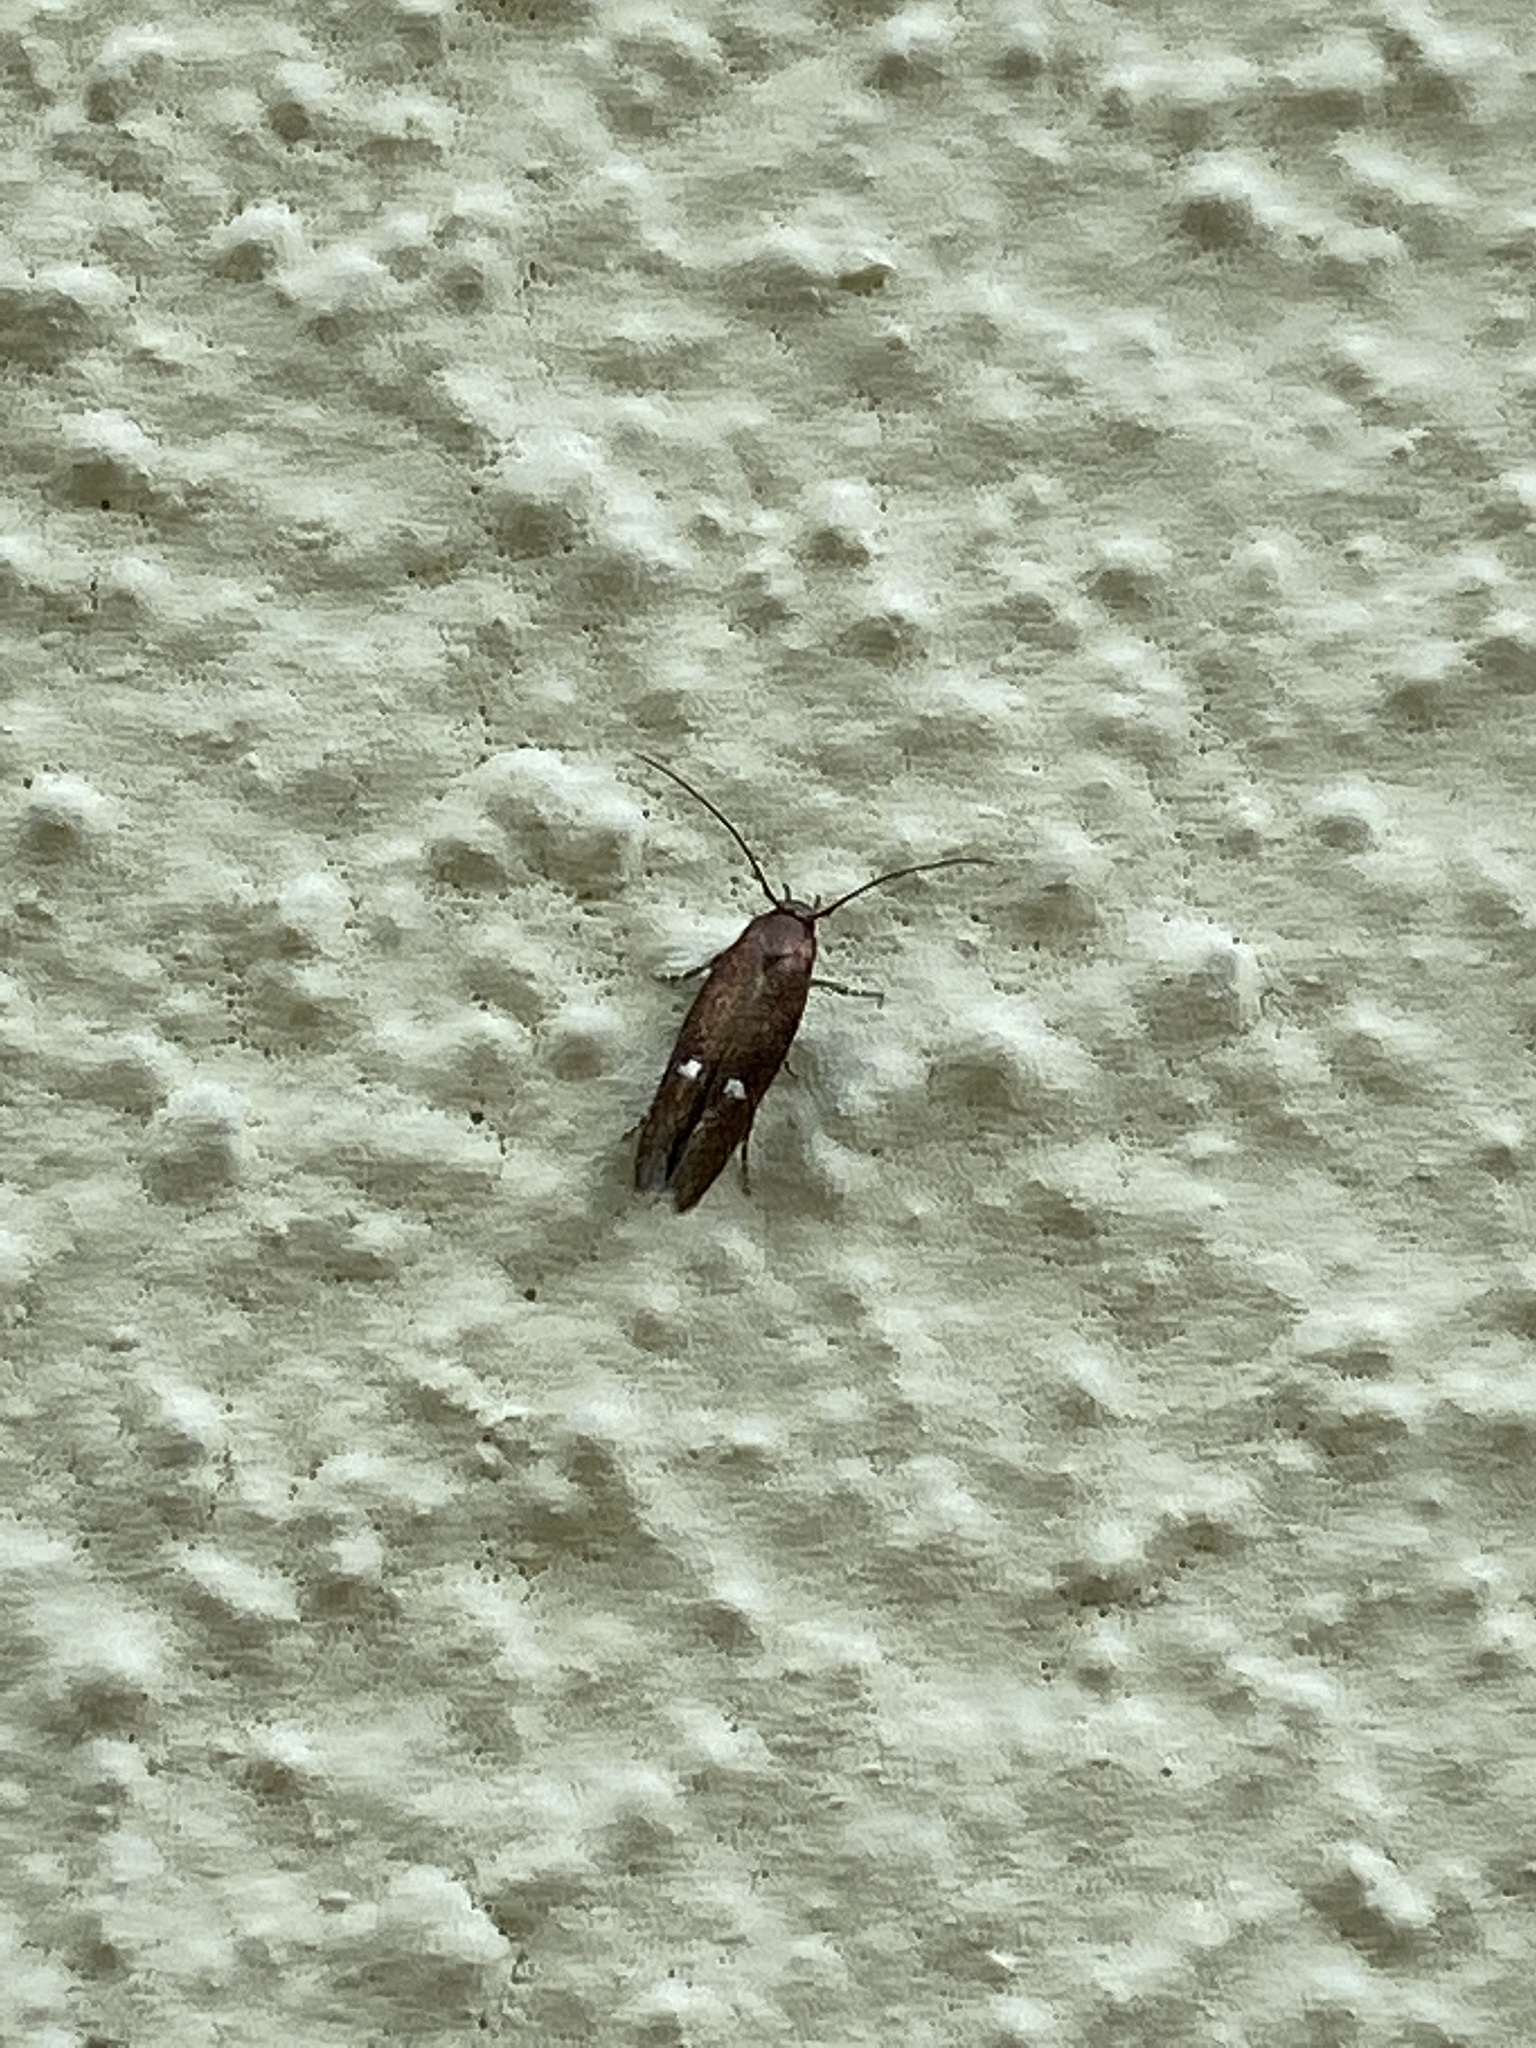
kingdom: Animalia
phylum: Arthropoda
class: Insecta
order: Lepidoptera
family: Momphidae
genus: Mompha
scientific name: Mompha langiella
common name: Clouded cosmet
